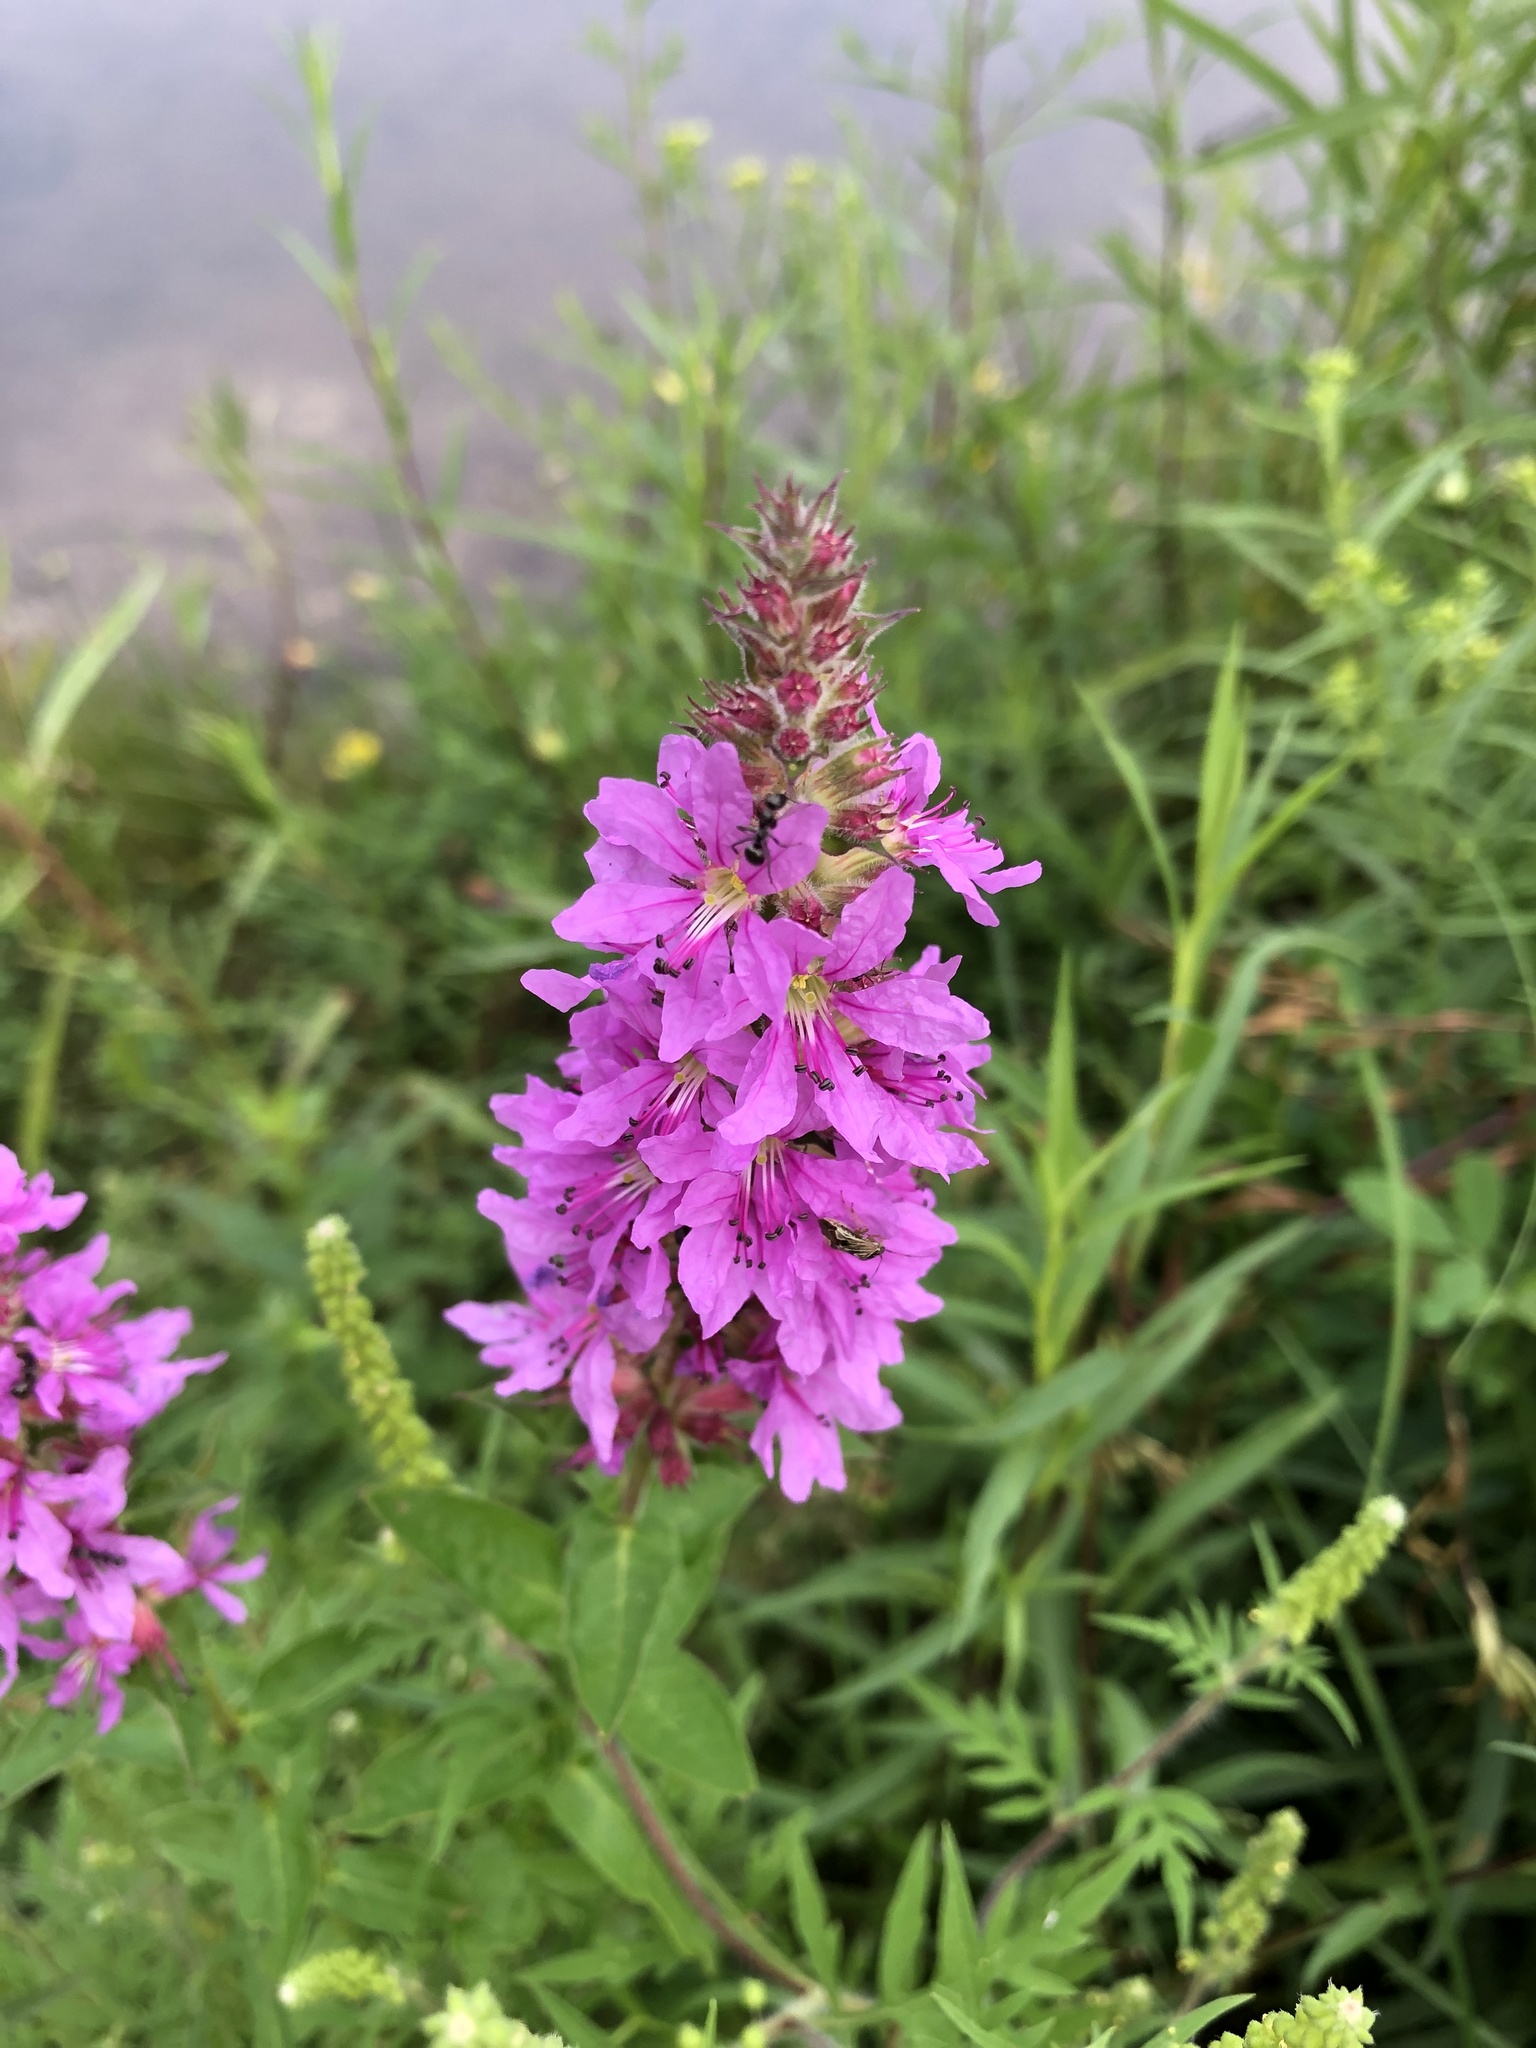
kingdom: Plantae
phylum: Tracheophyta
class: Magnoliopsida
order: Myrtales
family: Lythraceae
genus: Lythrum
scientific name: Lythrum salicaria
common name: Purple loosestrife
